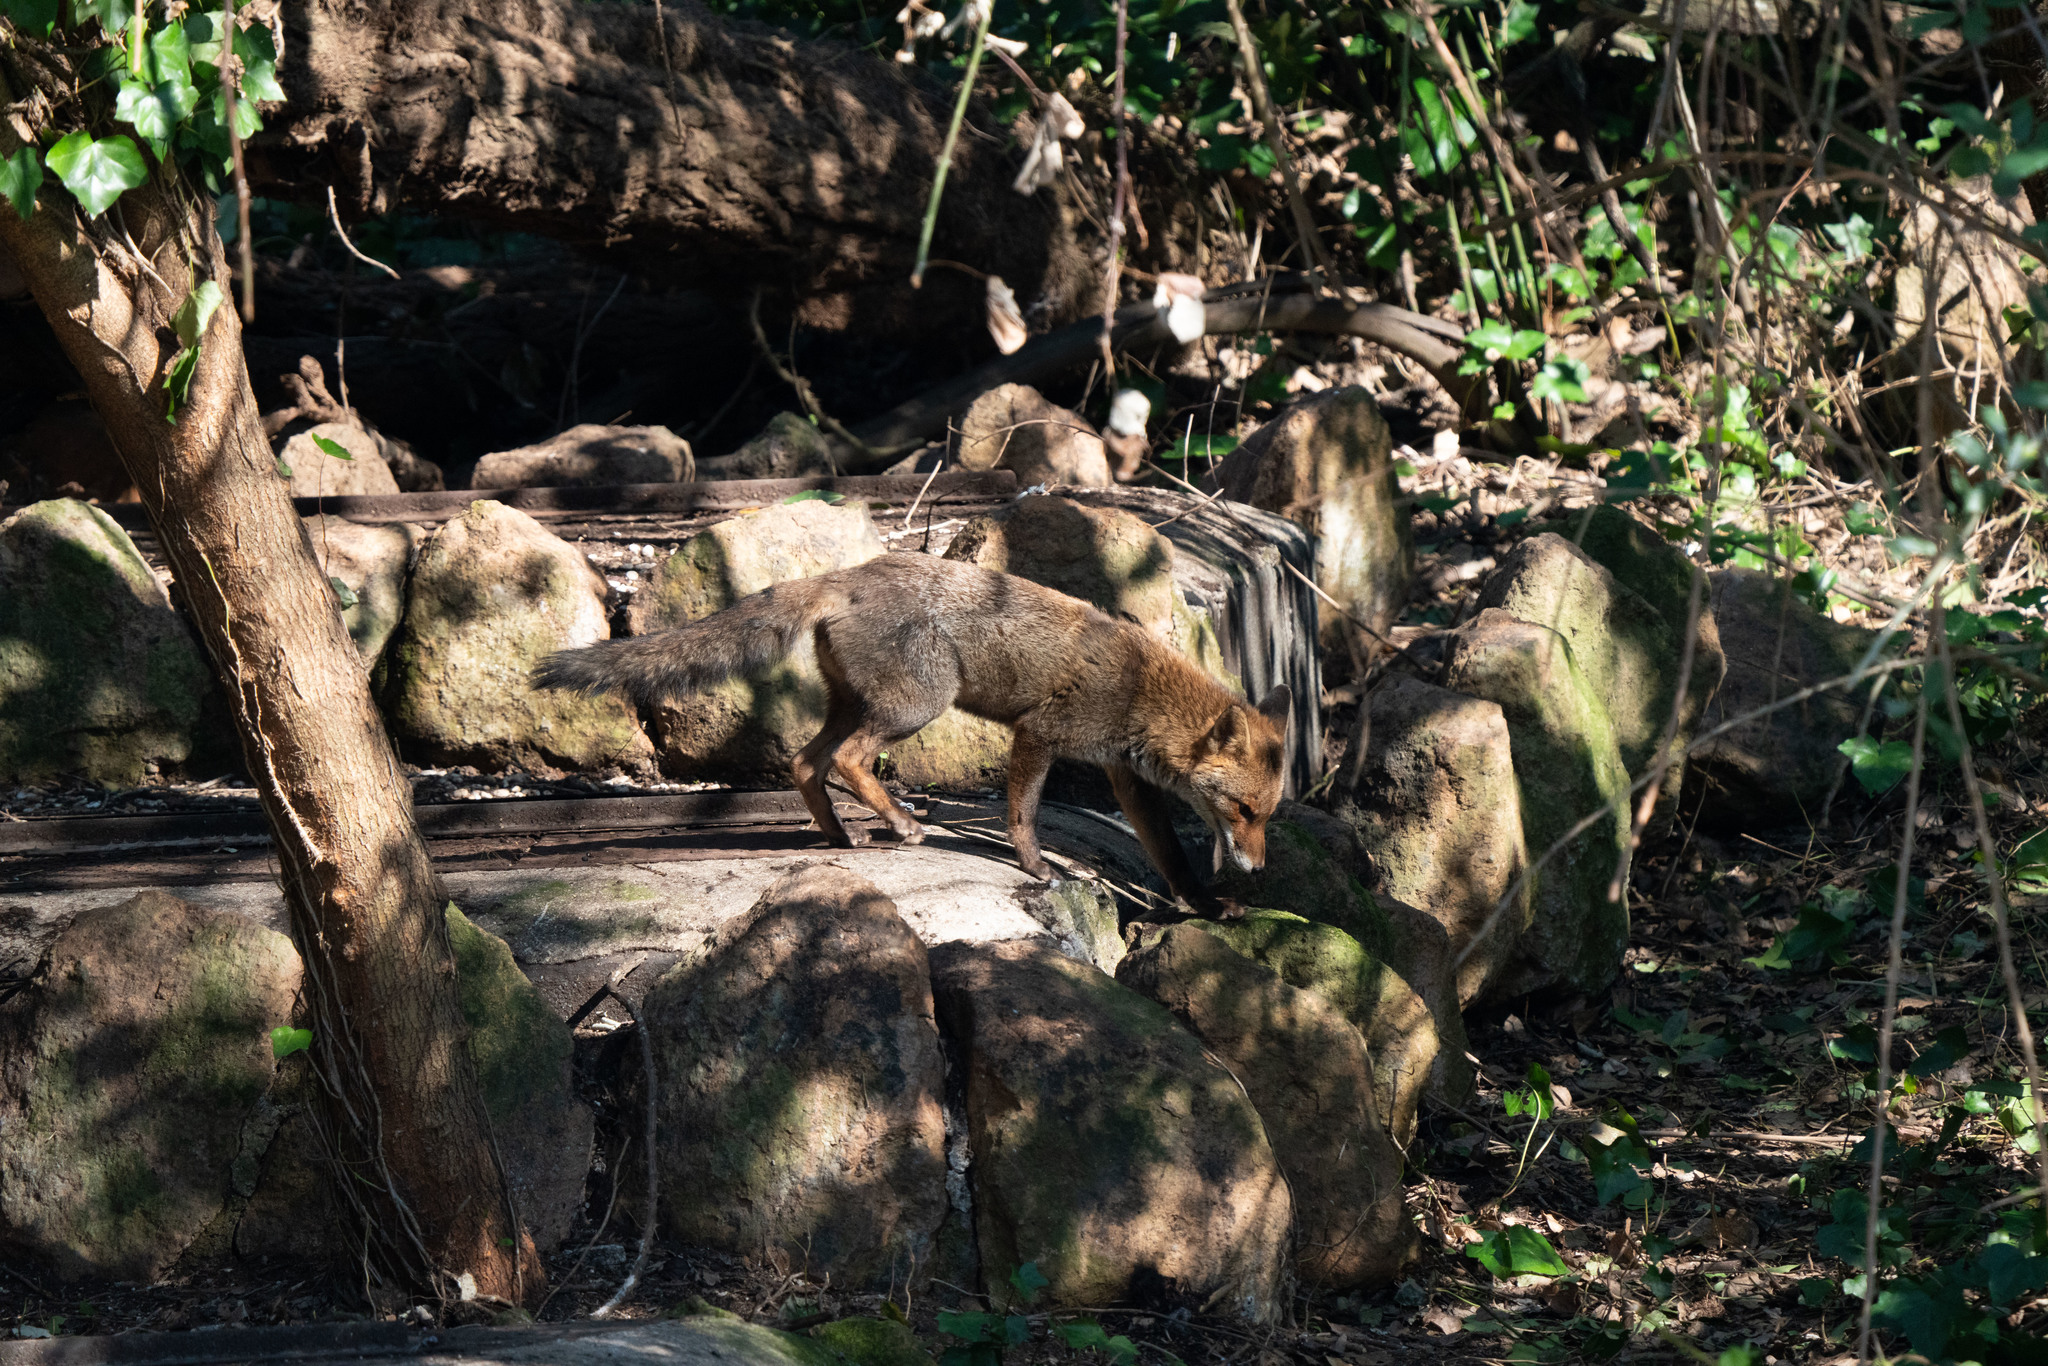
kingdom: Animalia
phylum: Chordata
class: Mammalia
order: Carnivora
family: Canidae
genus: Vulpes
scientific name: Vulpes vulpes
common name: Red fox
